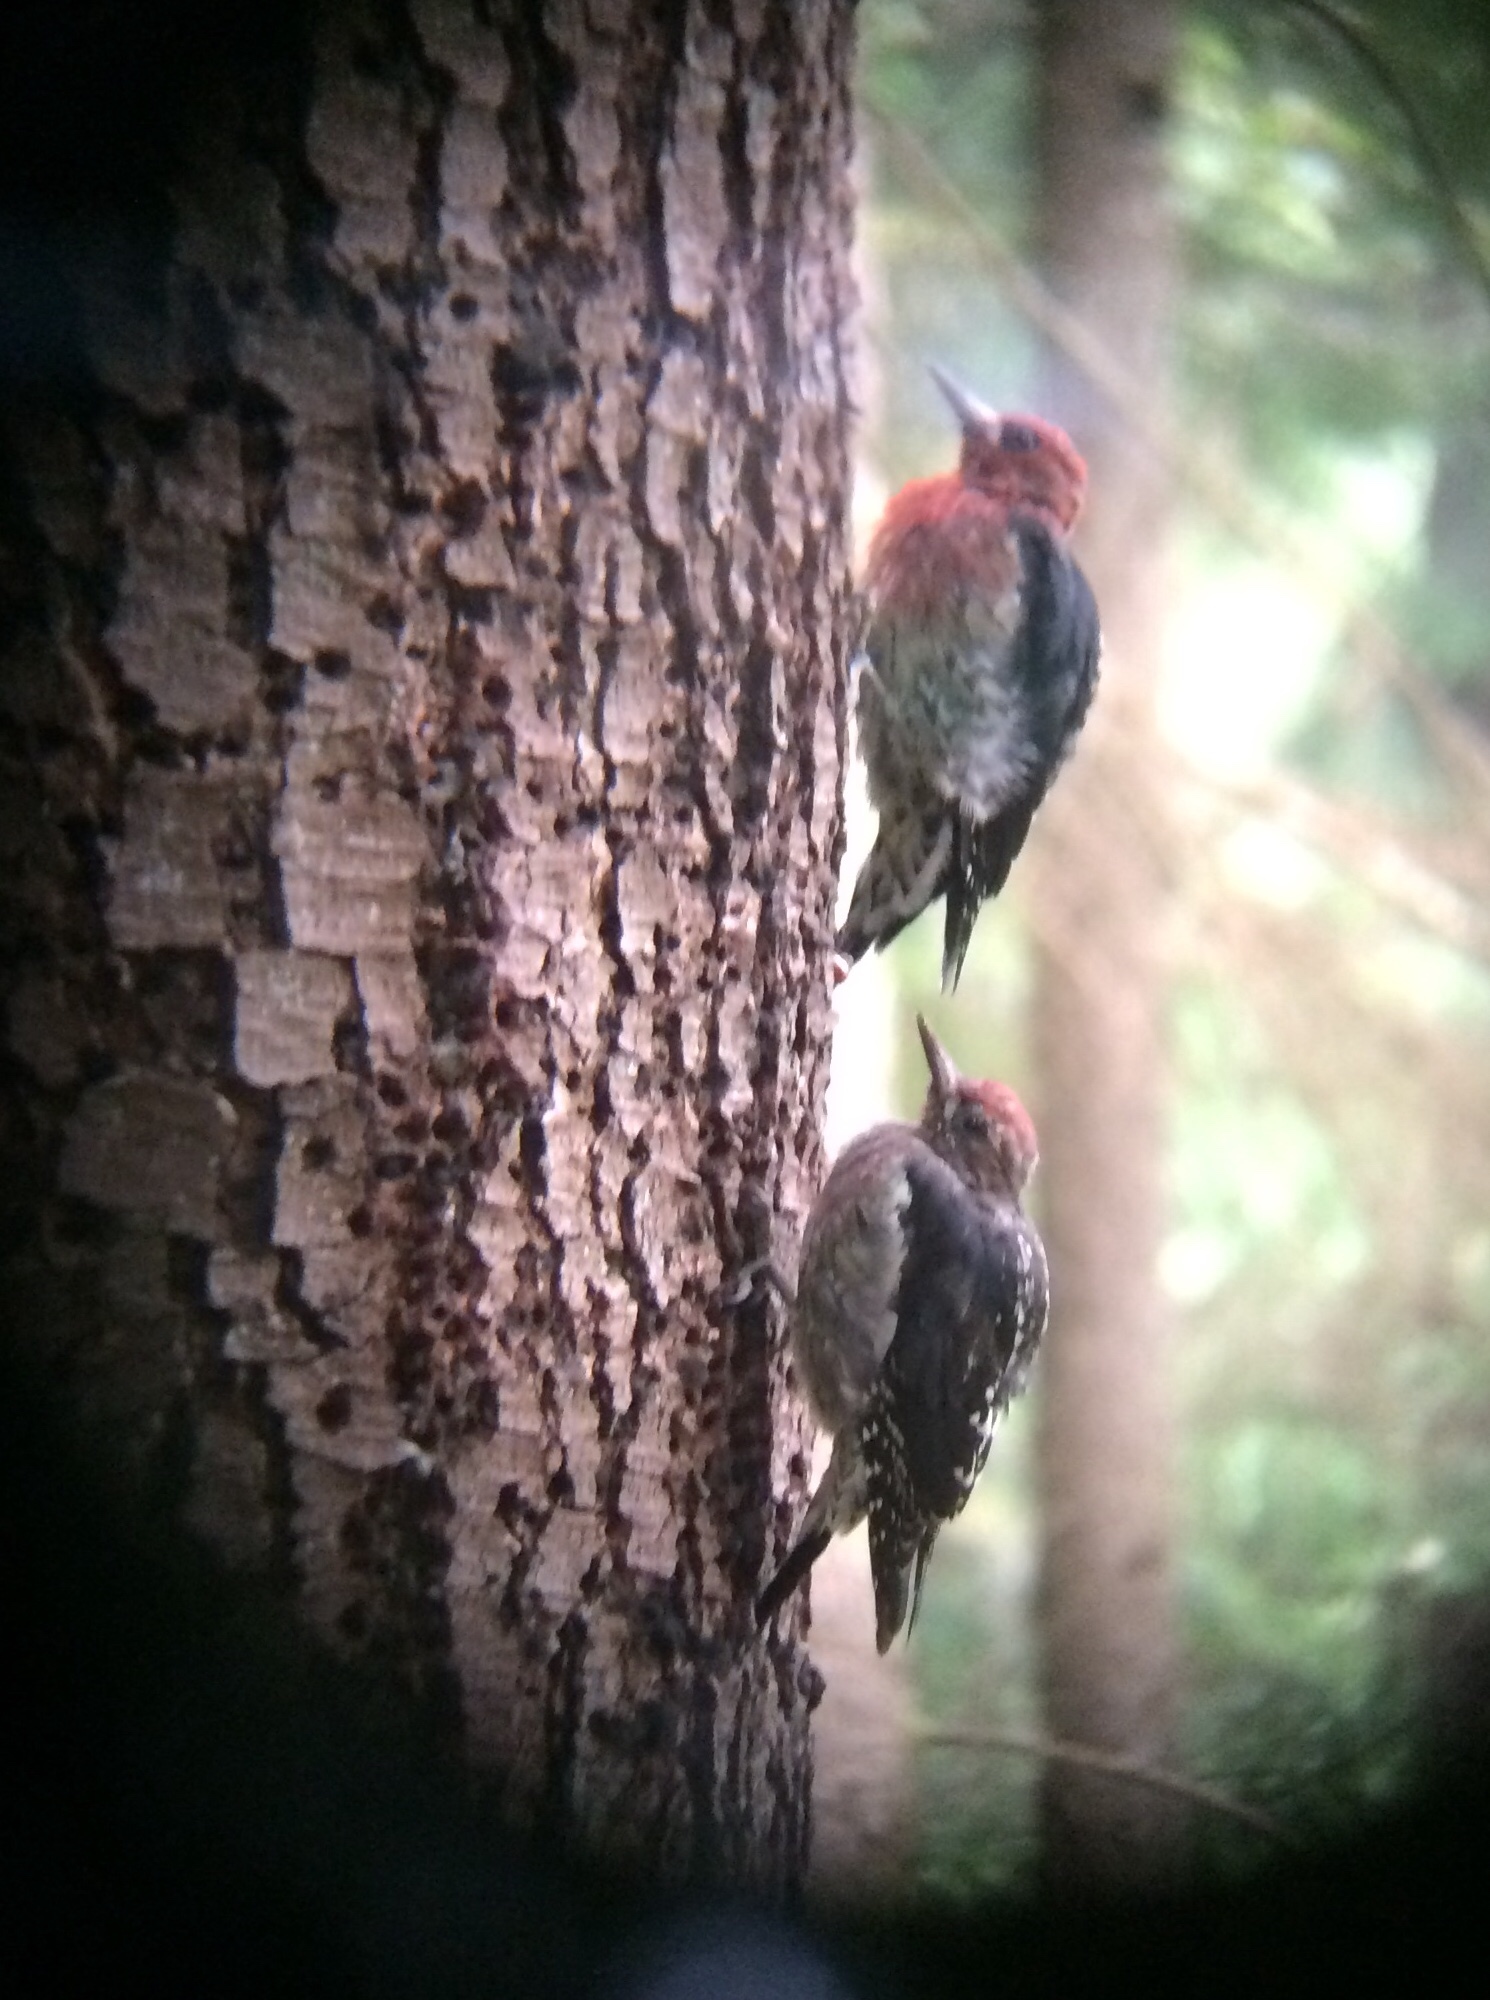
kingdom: Animalia
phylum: Chordata
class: Aves
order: Piciformes
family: Picidae
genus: Sphyrapicus
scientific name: Sphyrapicus ruber
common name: Red-breasted sapsucker
